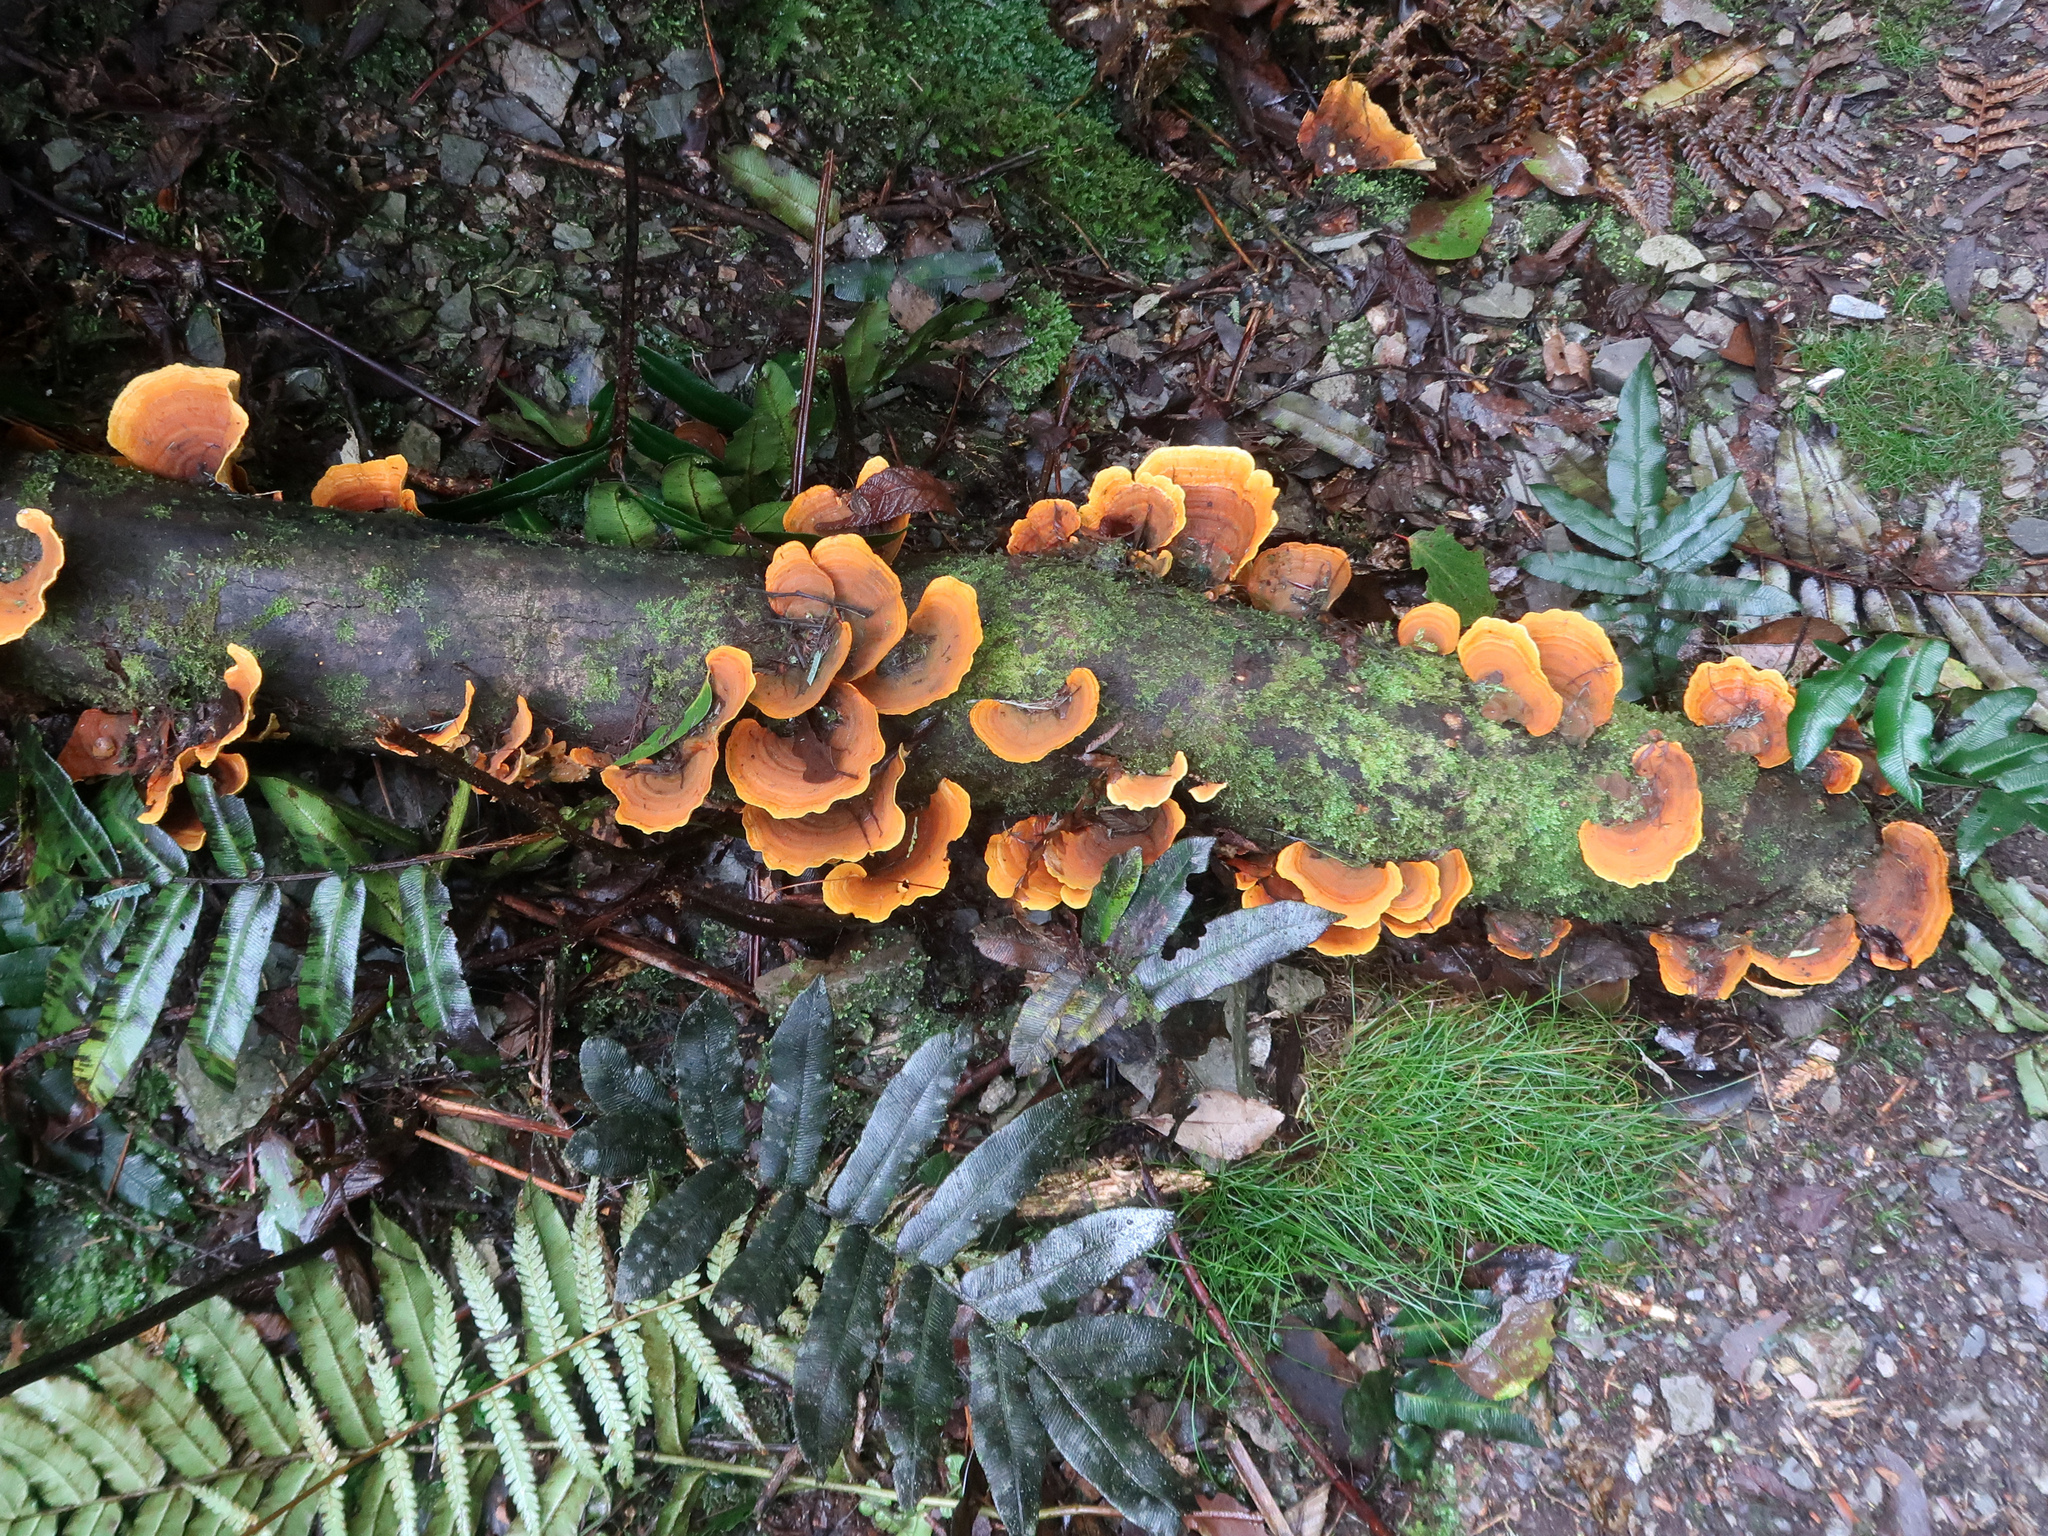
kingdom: Fungi
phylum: Basidiomycota
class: Agaricomycetes
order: Russulales
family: Stereaceae
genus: Stereum
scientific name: Stereum ostrea
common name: False turkeytail
